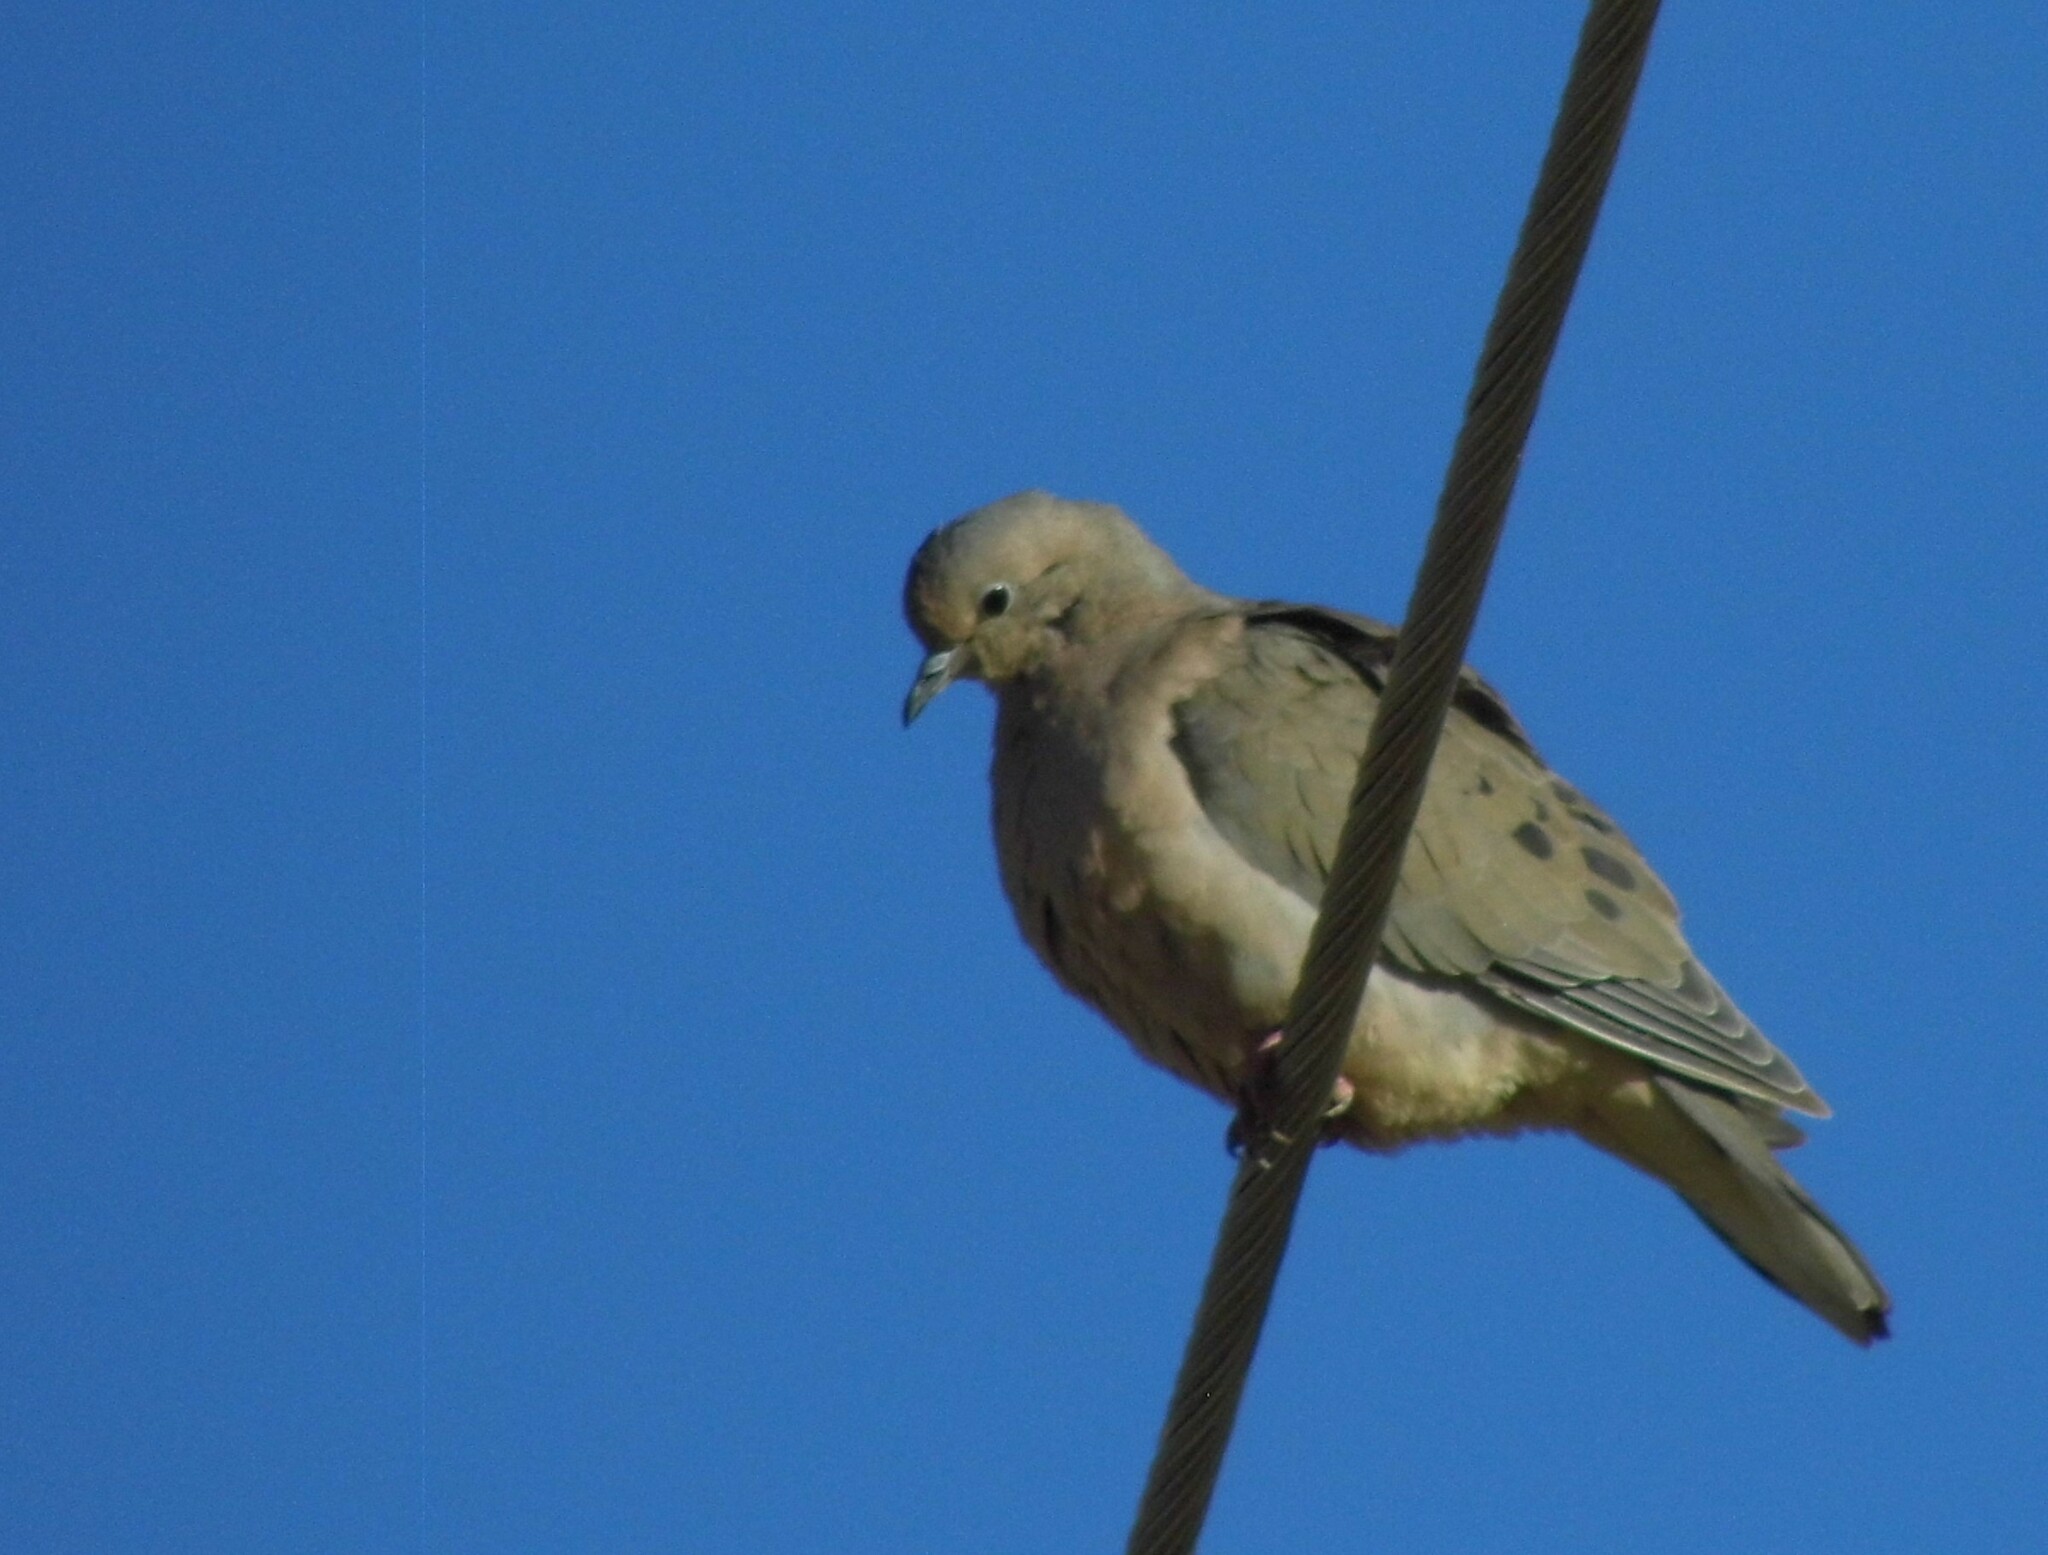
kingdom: Animalia
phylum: Chordata
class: Aves
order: Columbiformes
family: Columbidae
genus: Zenaida
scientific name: Zenaida auriculata
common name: Eared dove
